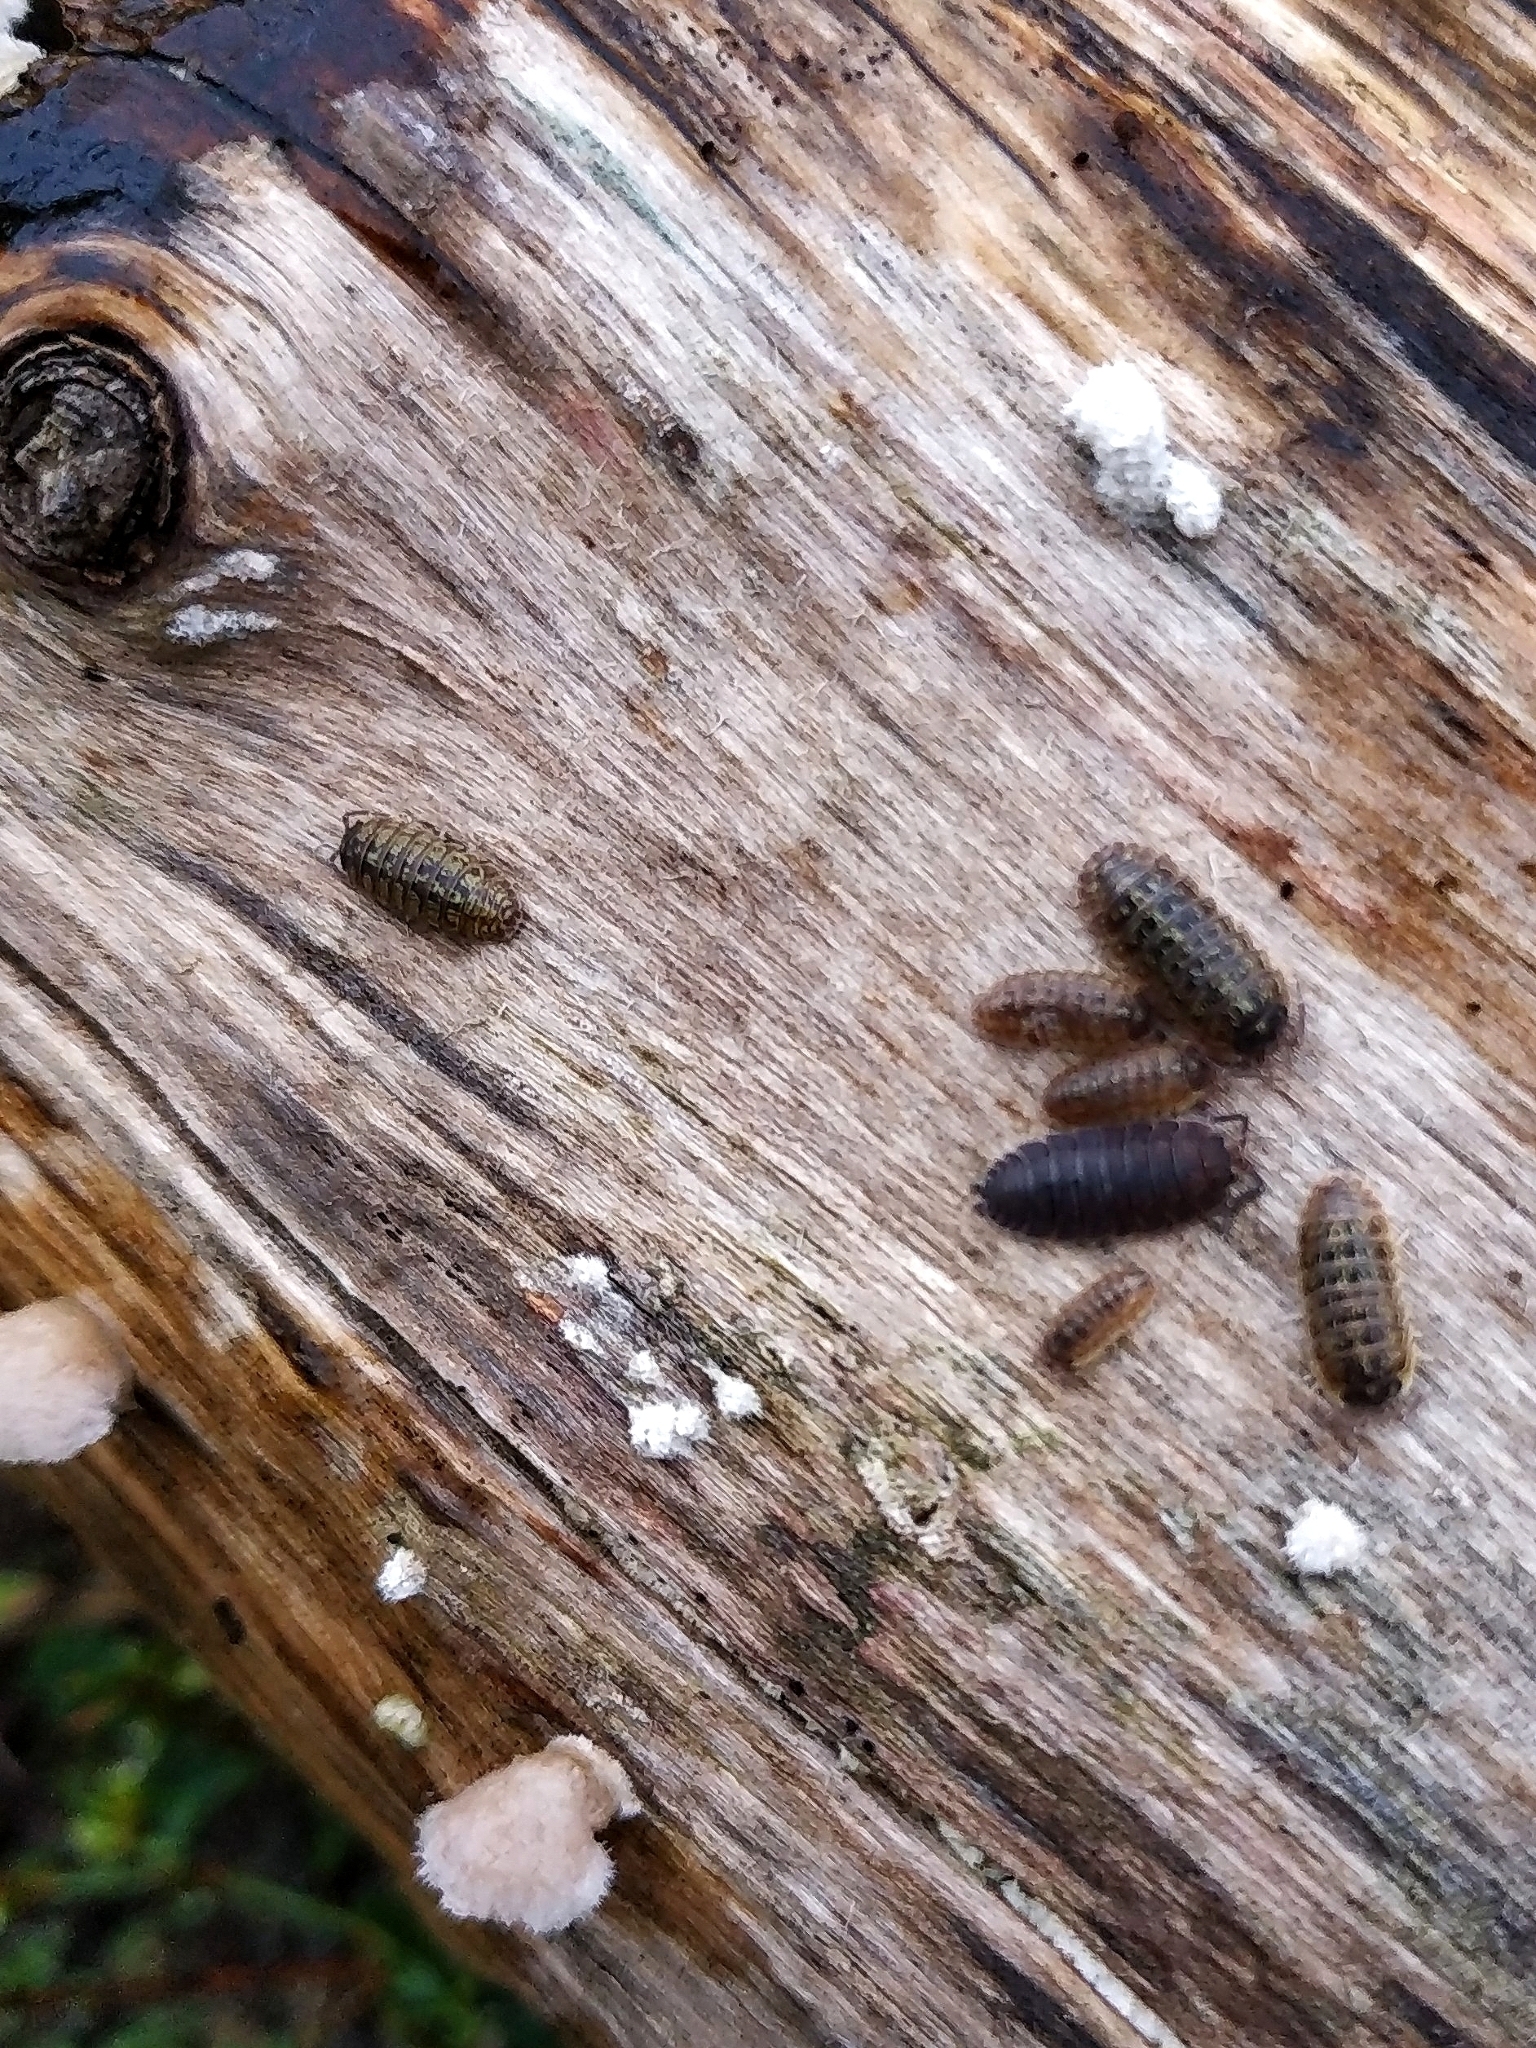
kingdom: Animalia
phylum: Arthropoda
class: Malacostraca
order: Isopoda
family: Armadillidiidae
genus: Armadillidium
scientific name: Armadillidium versicolor
